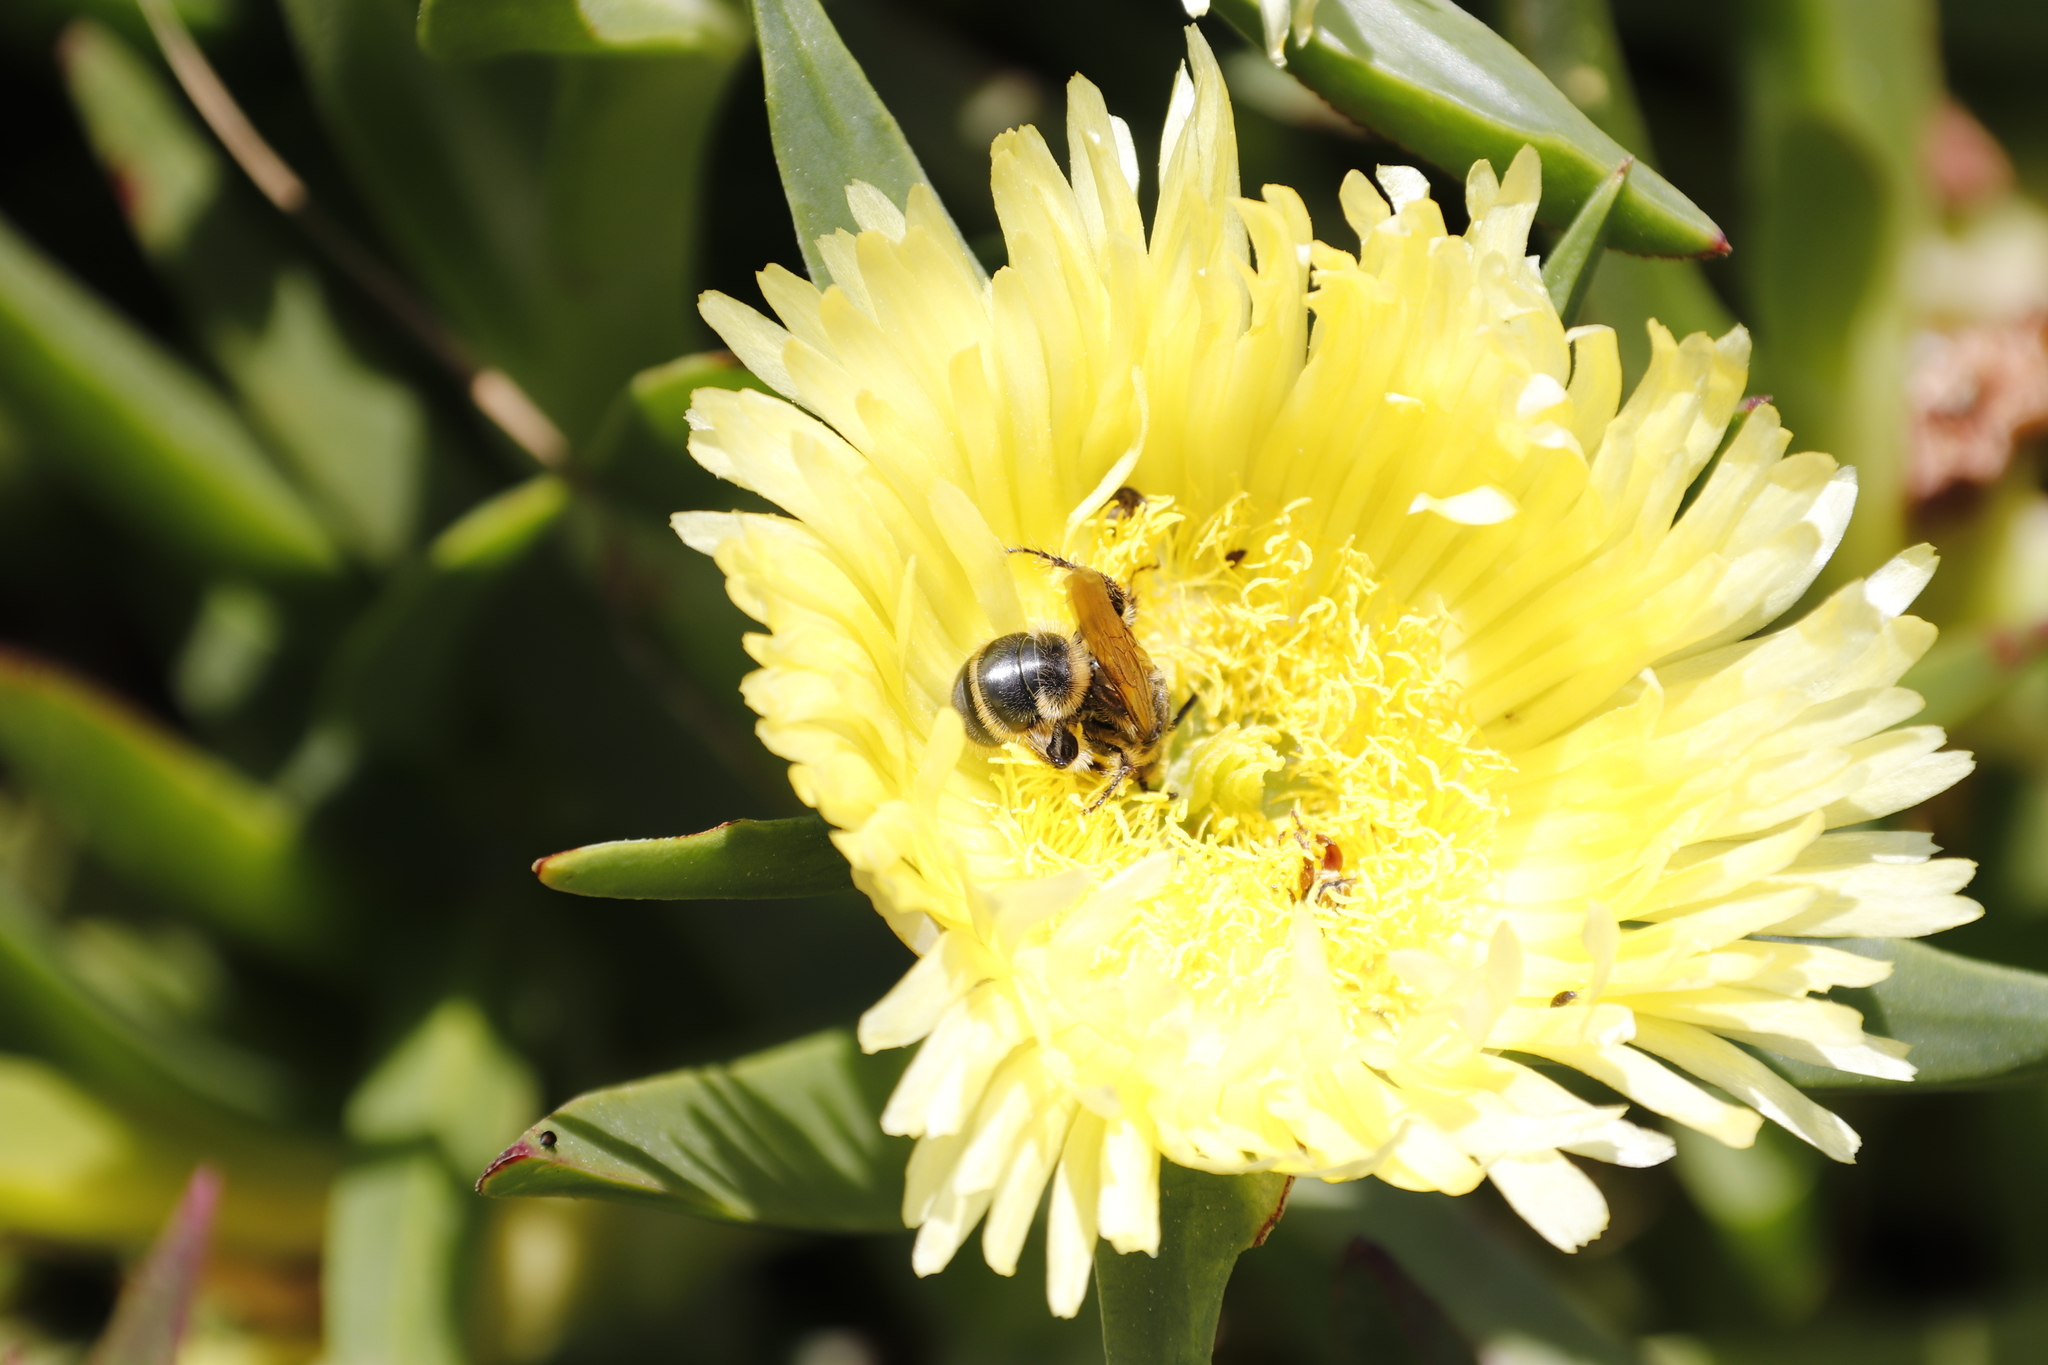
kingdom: Plantae
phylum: Tracheophyta
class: Magnoliopsida
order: Caryophyllales
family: Aizoaceae
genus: Carpobrotus
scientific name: Carpobrotus edulis
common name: Hottentot-fig
